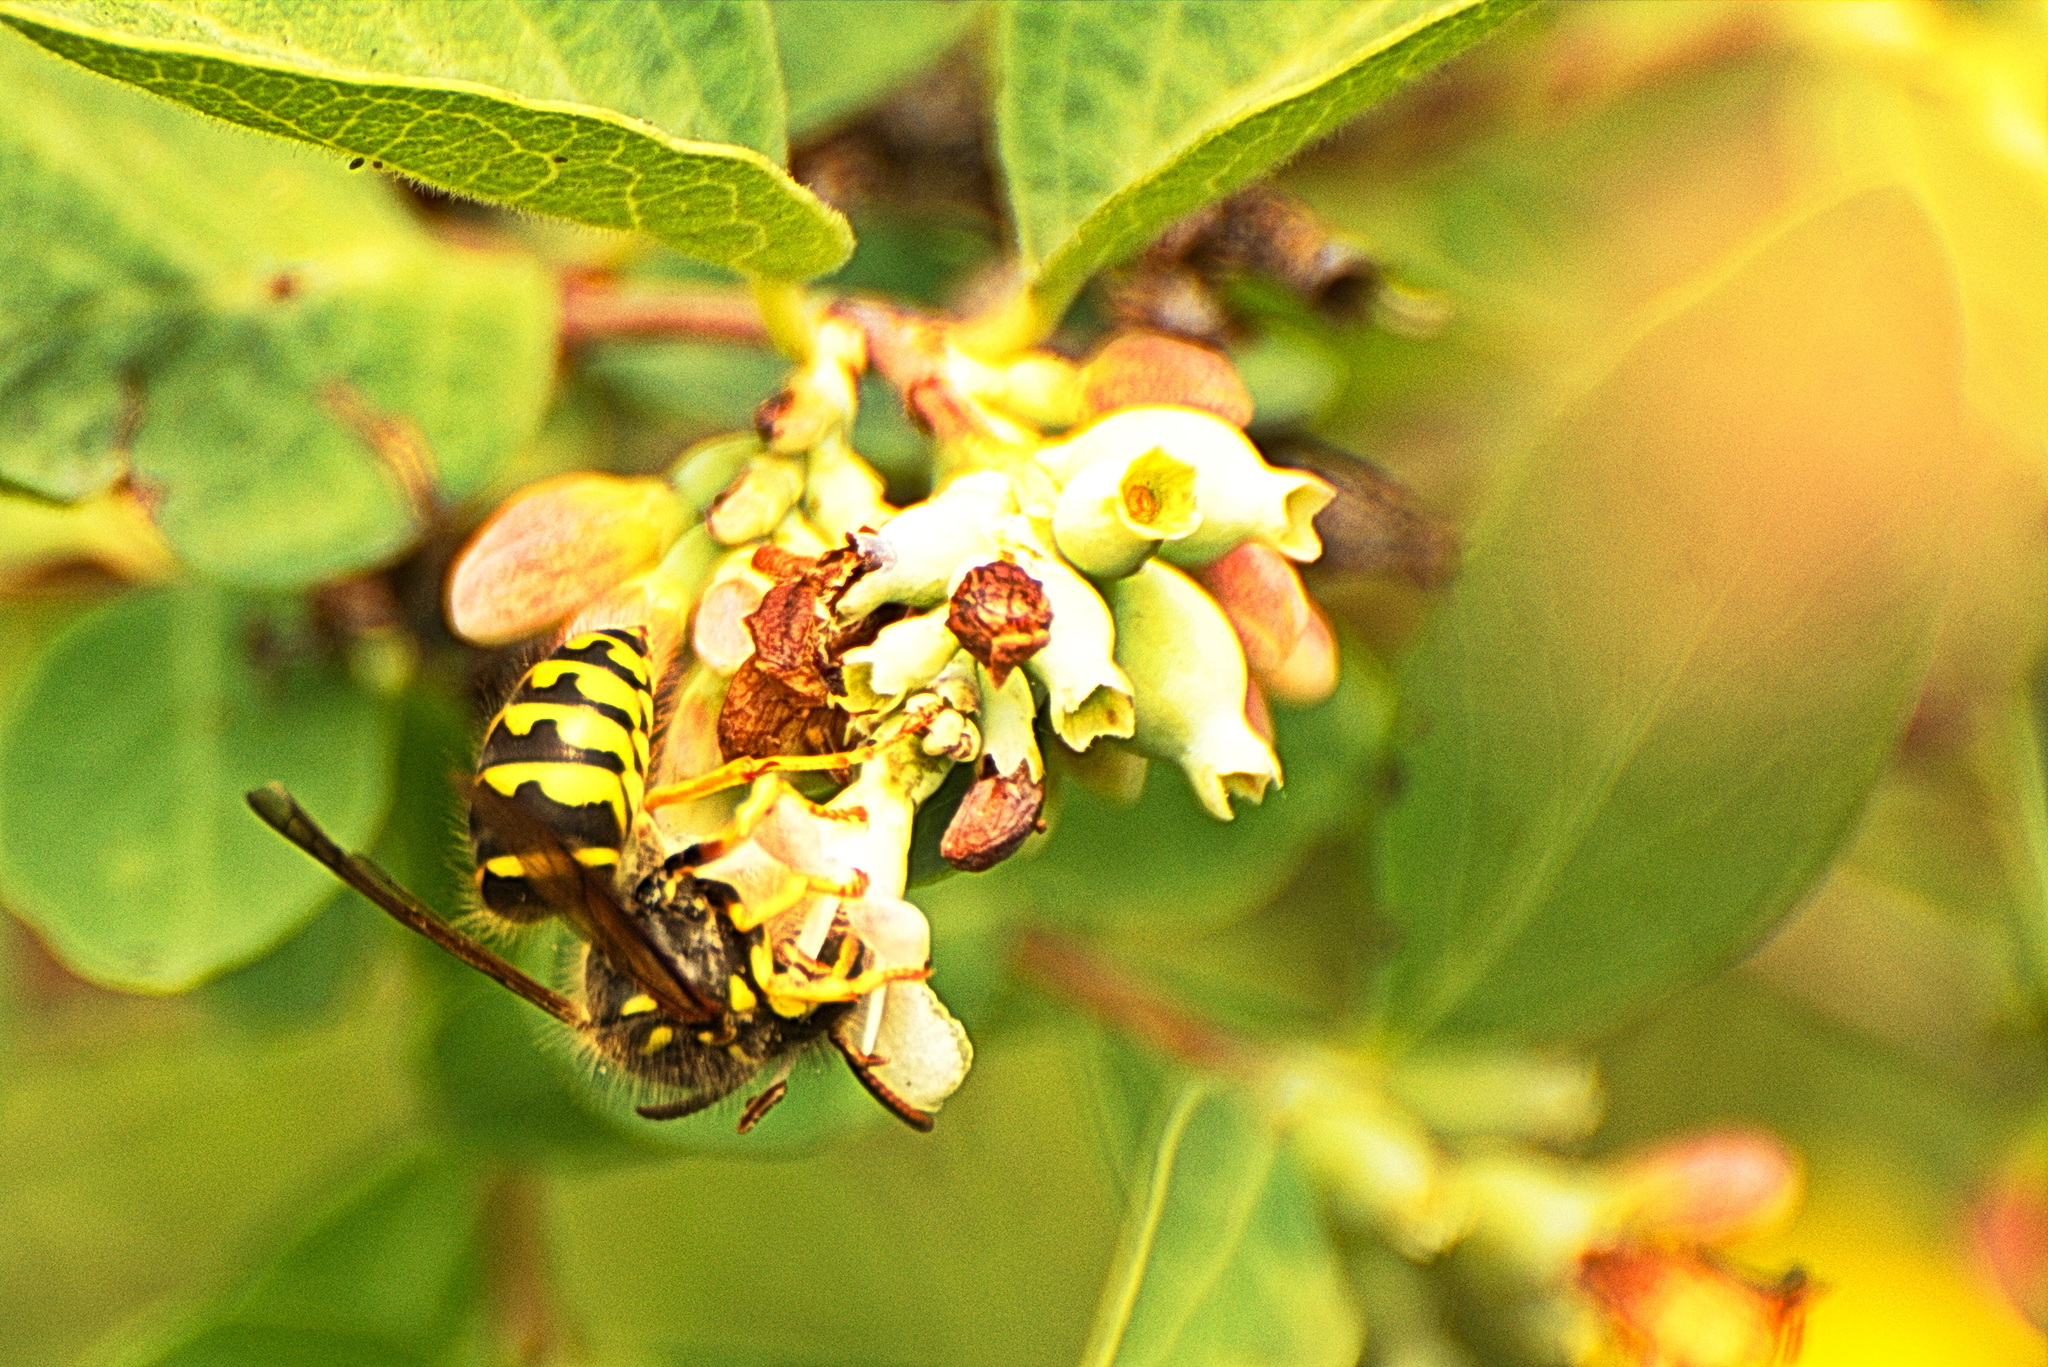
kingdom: Animalia
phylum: Arthropoda
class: Insecta
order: Hymenoptera
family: Vespidae
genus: Dolichovespula
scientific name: Dolichovespula arenaria
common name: Aerial yellowjacket
